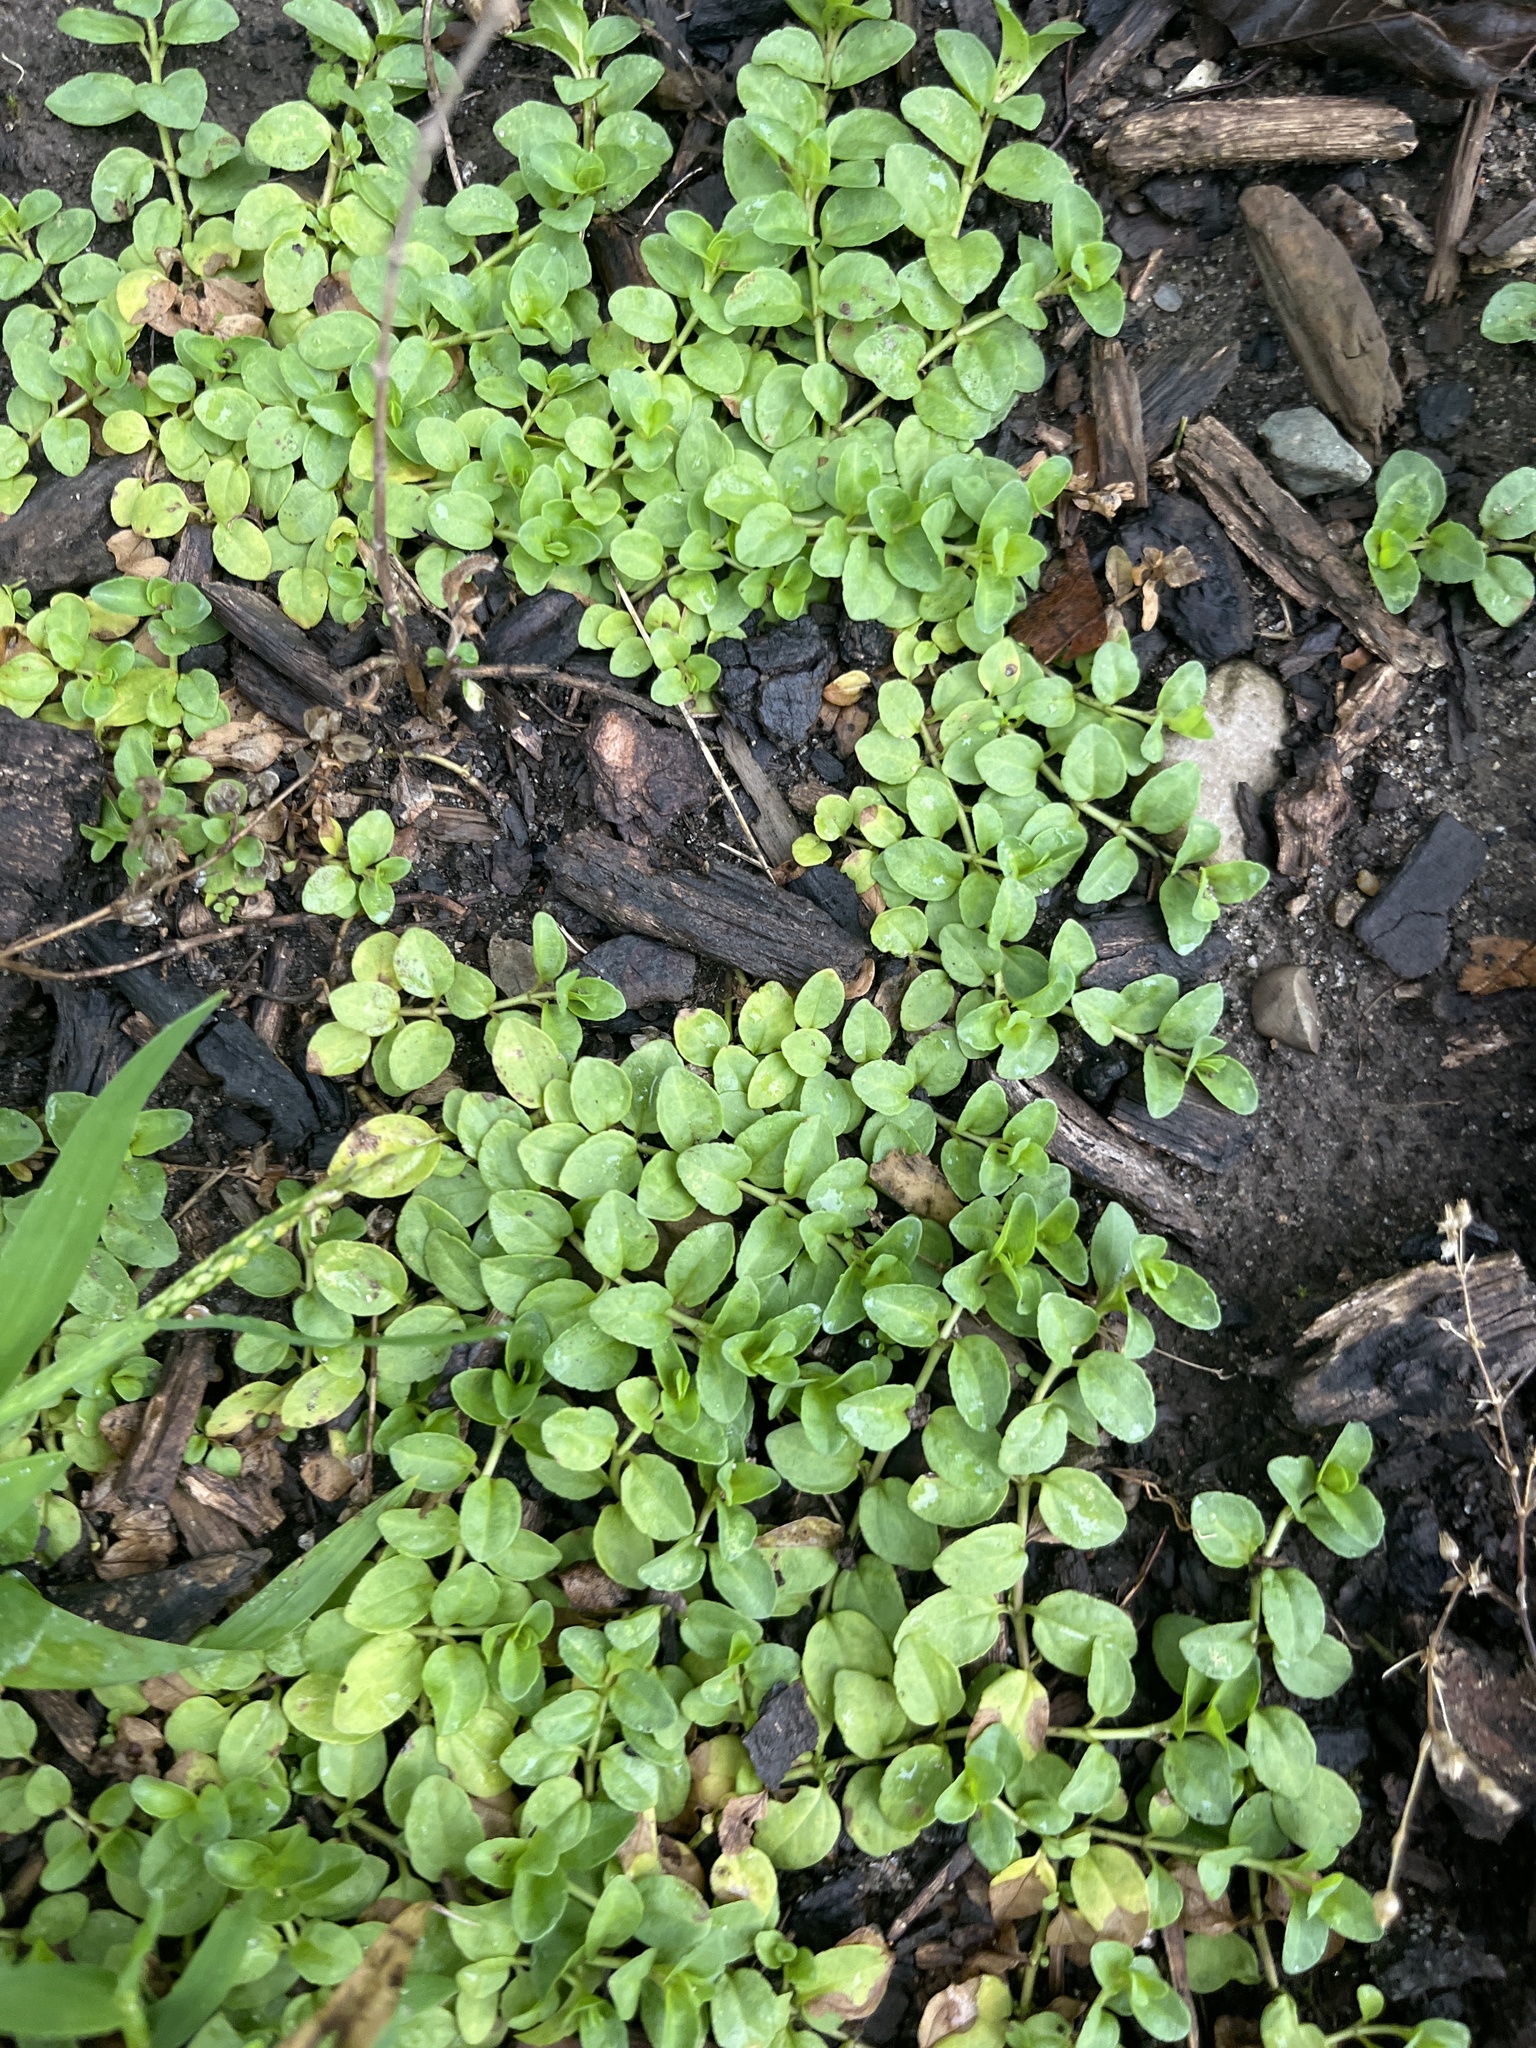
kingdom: Plantae
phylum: Tracheophyta
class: Magnoliopsida
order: Ericales
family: Primulaceae
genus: Lysimachia
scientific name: Lysimachia nummularia
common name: Moneywort
